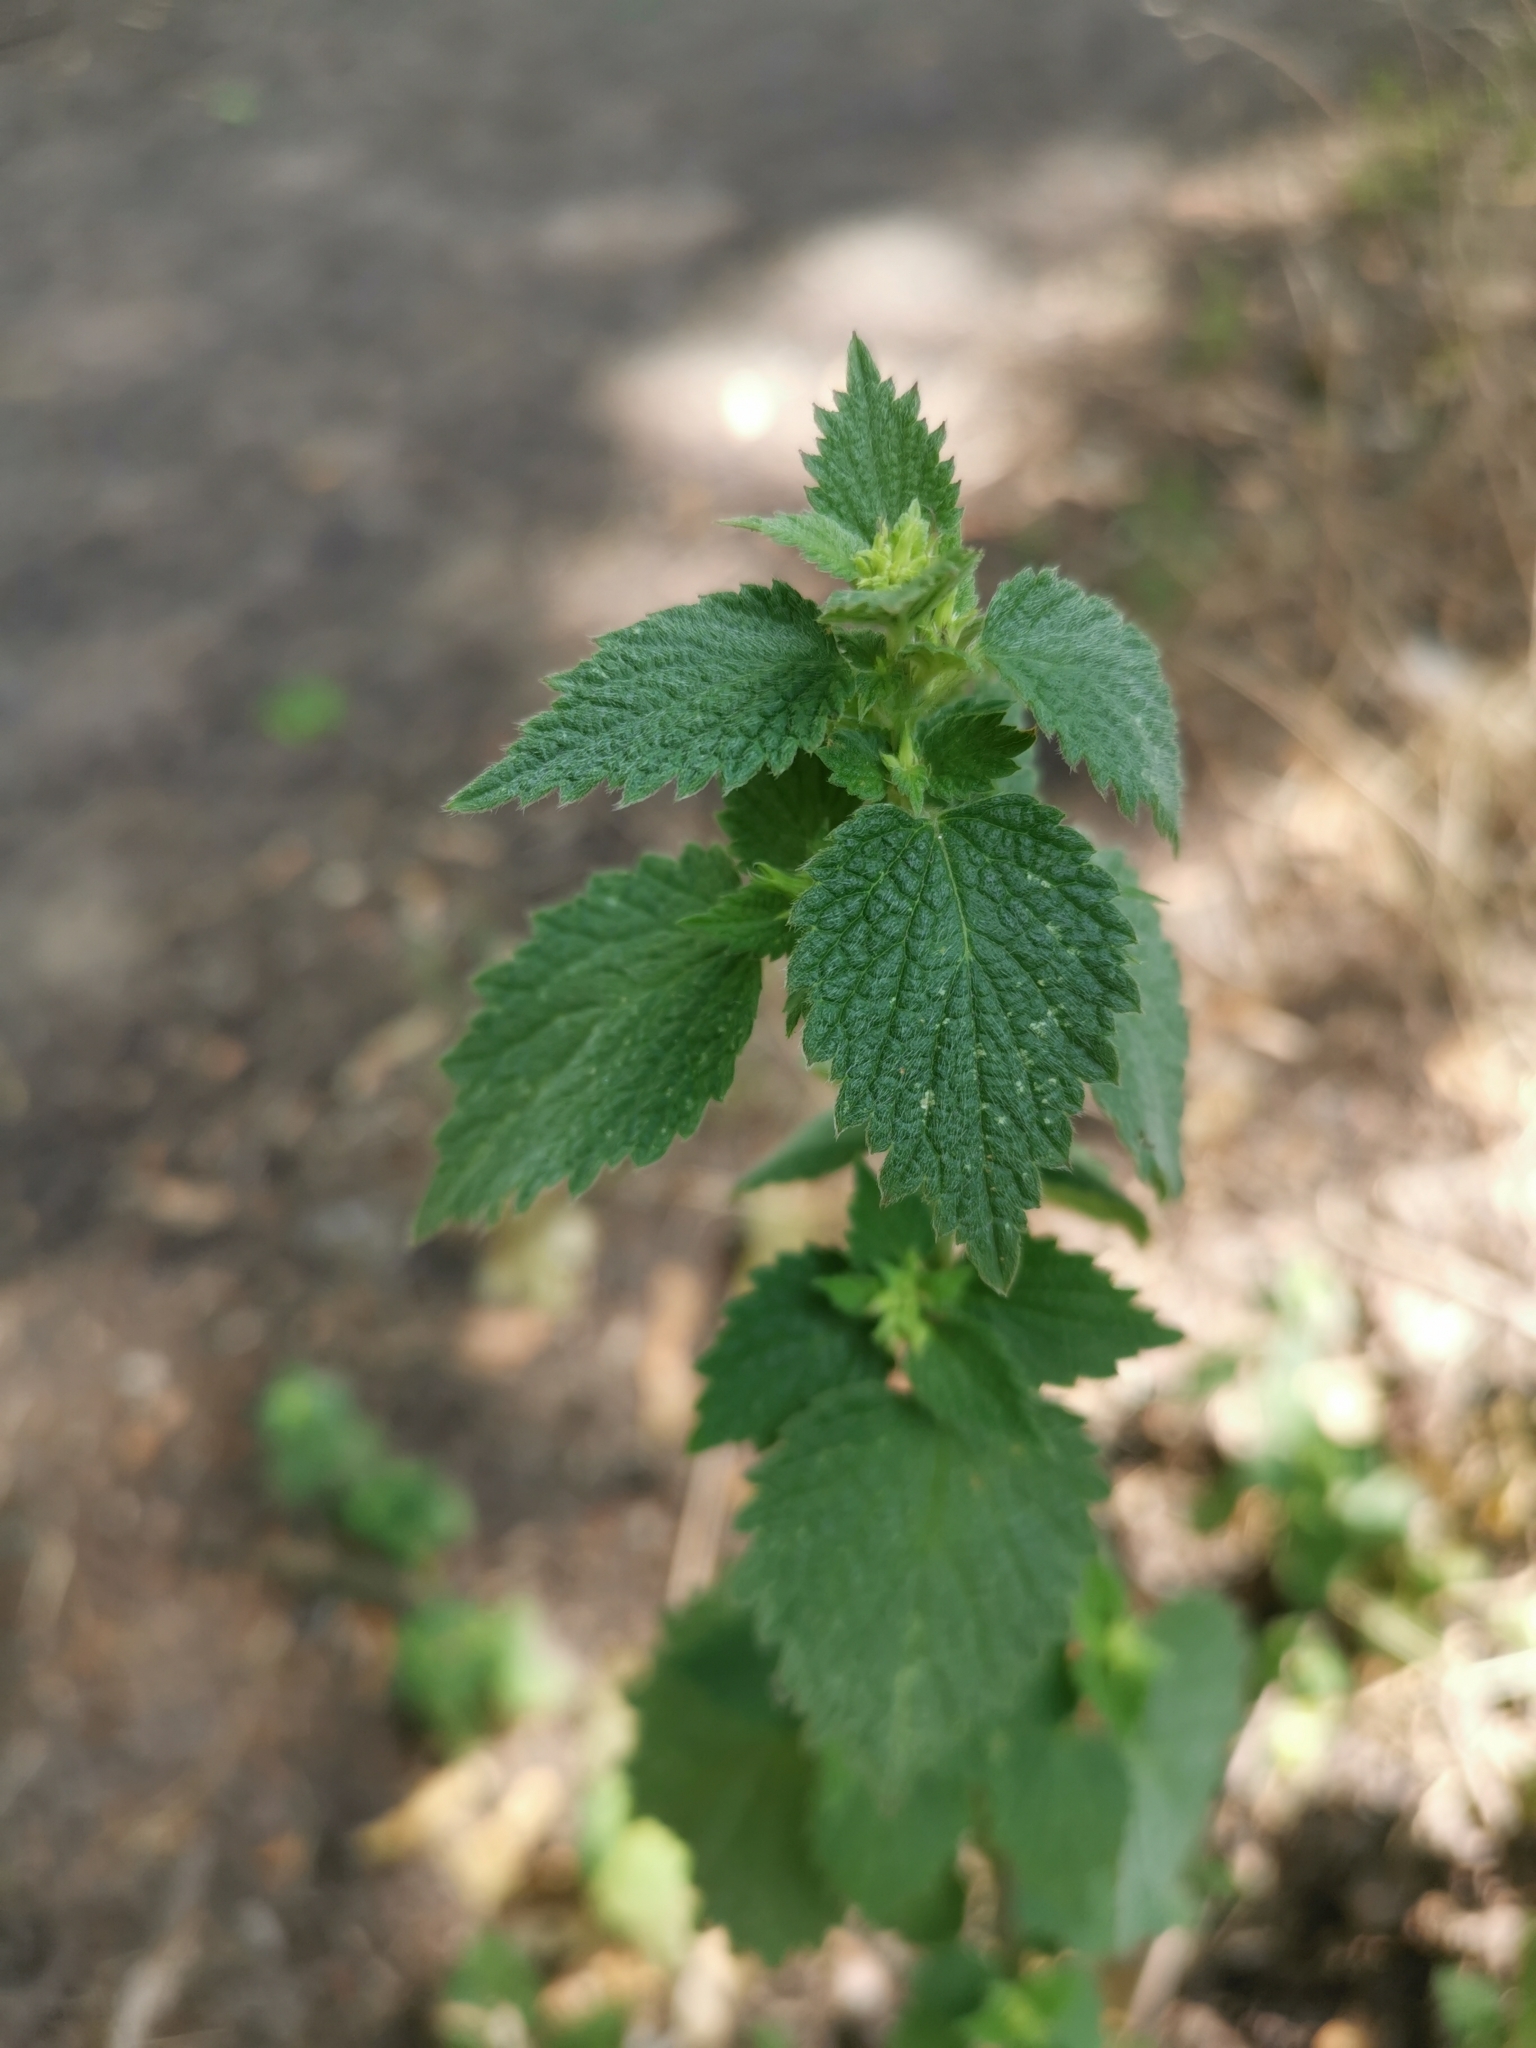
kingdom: Plantae
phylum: Tracheophyta
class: Magnoliopsida
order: Lamiales
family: Lamiaceae
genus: Ballota
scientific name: Ballota nigra
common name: Black horehound
